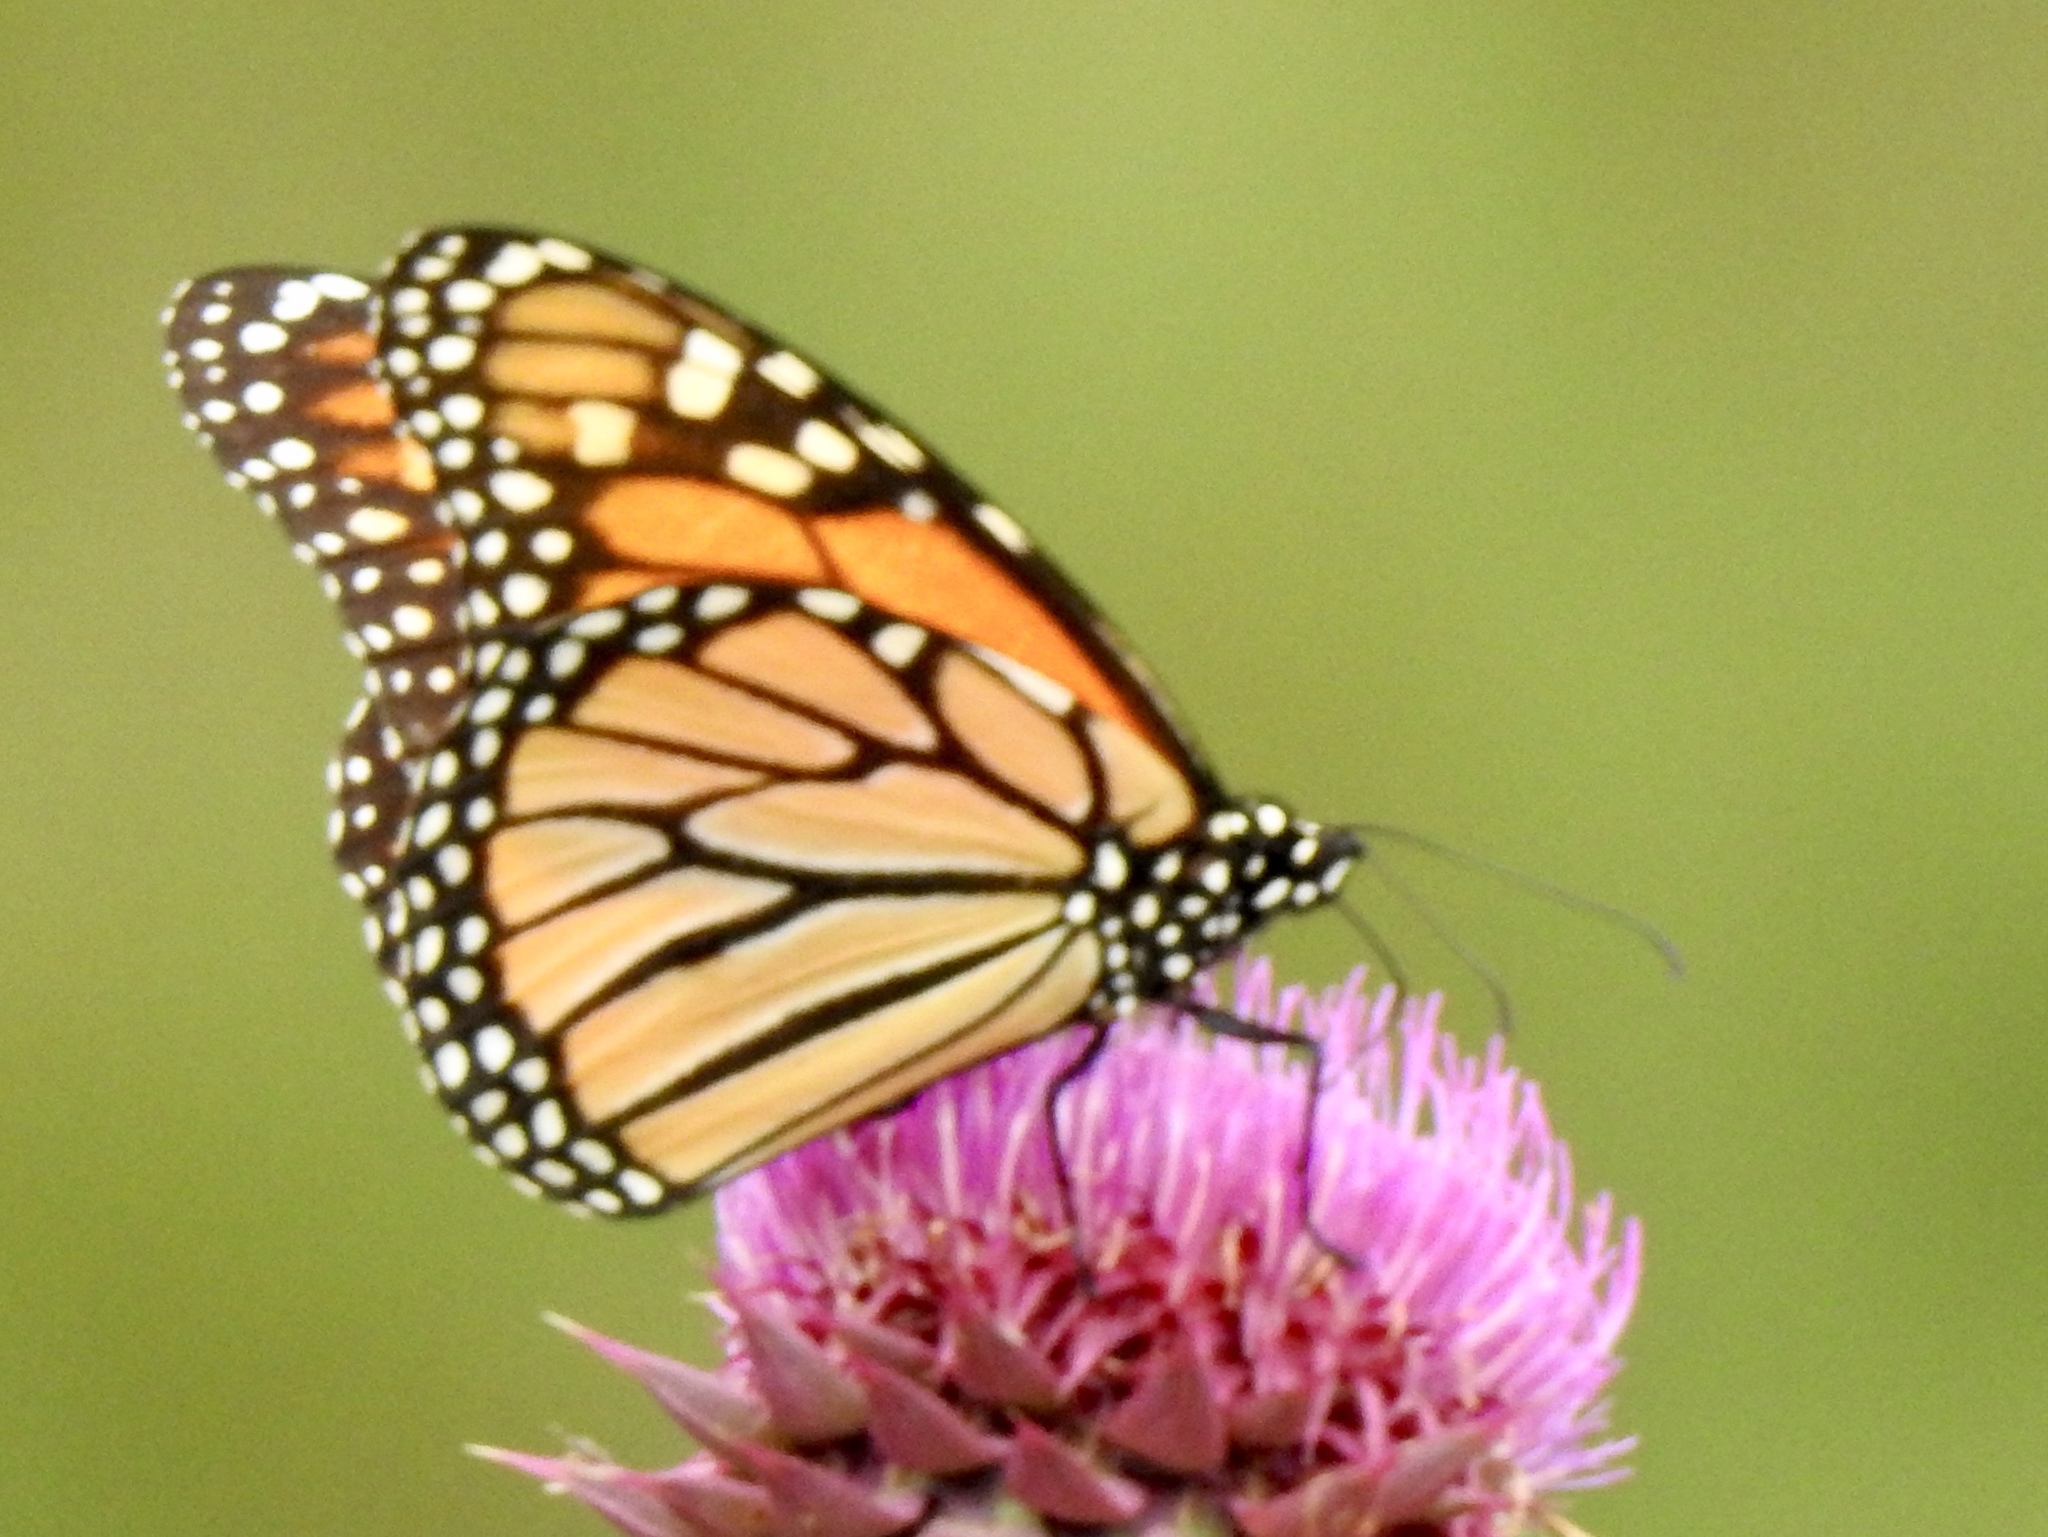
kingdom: Animalia
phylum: Arthropoda
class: Insecta
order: Lepidoptera
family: Nymphalidae
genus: Danaus
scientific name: Danaus plexippus
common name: Monarch
